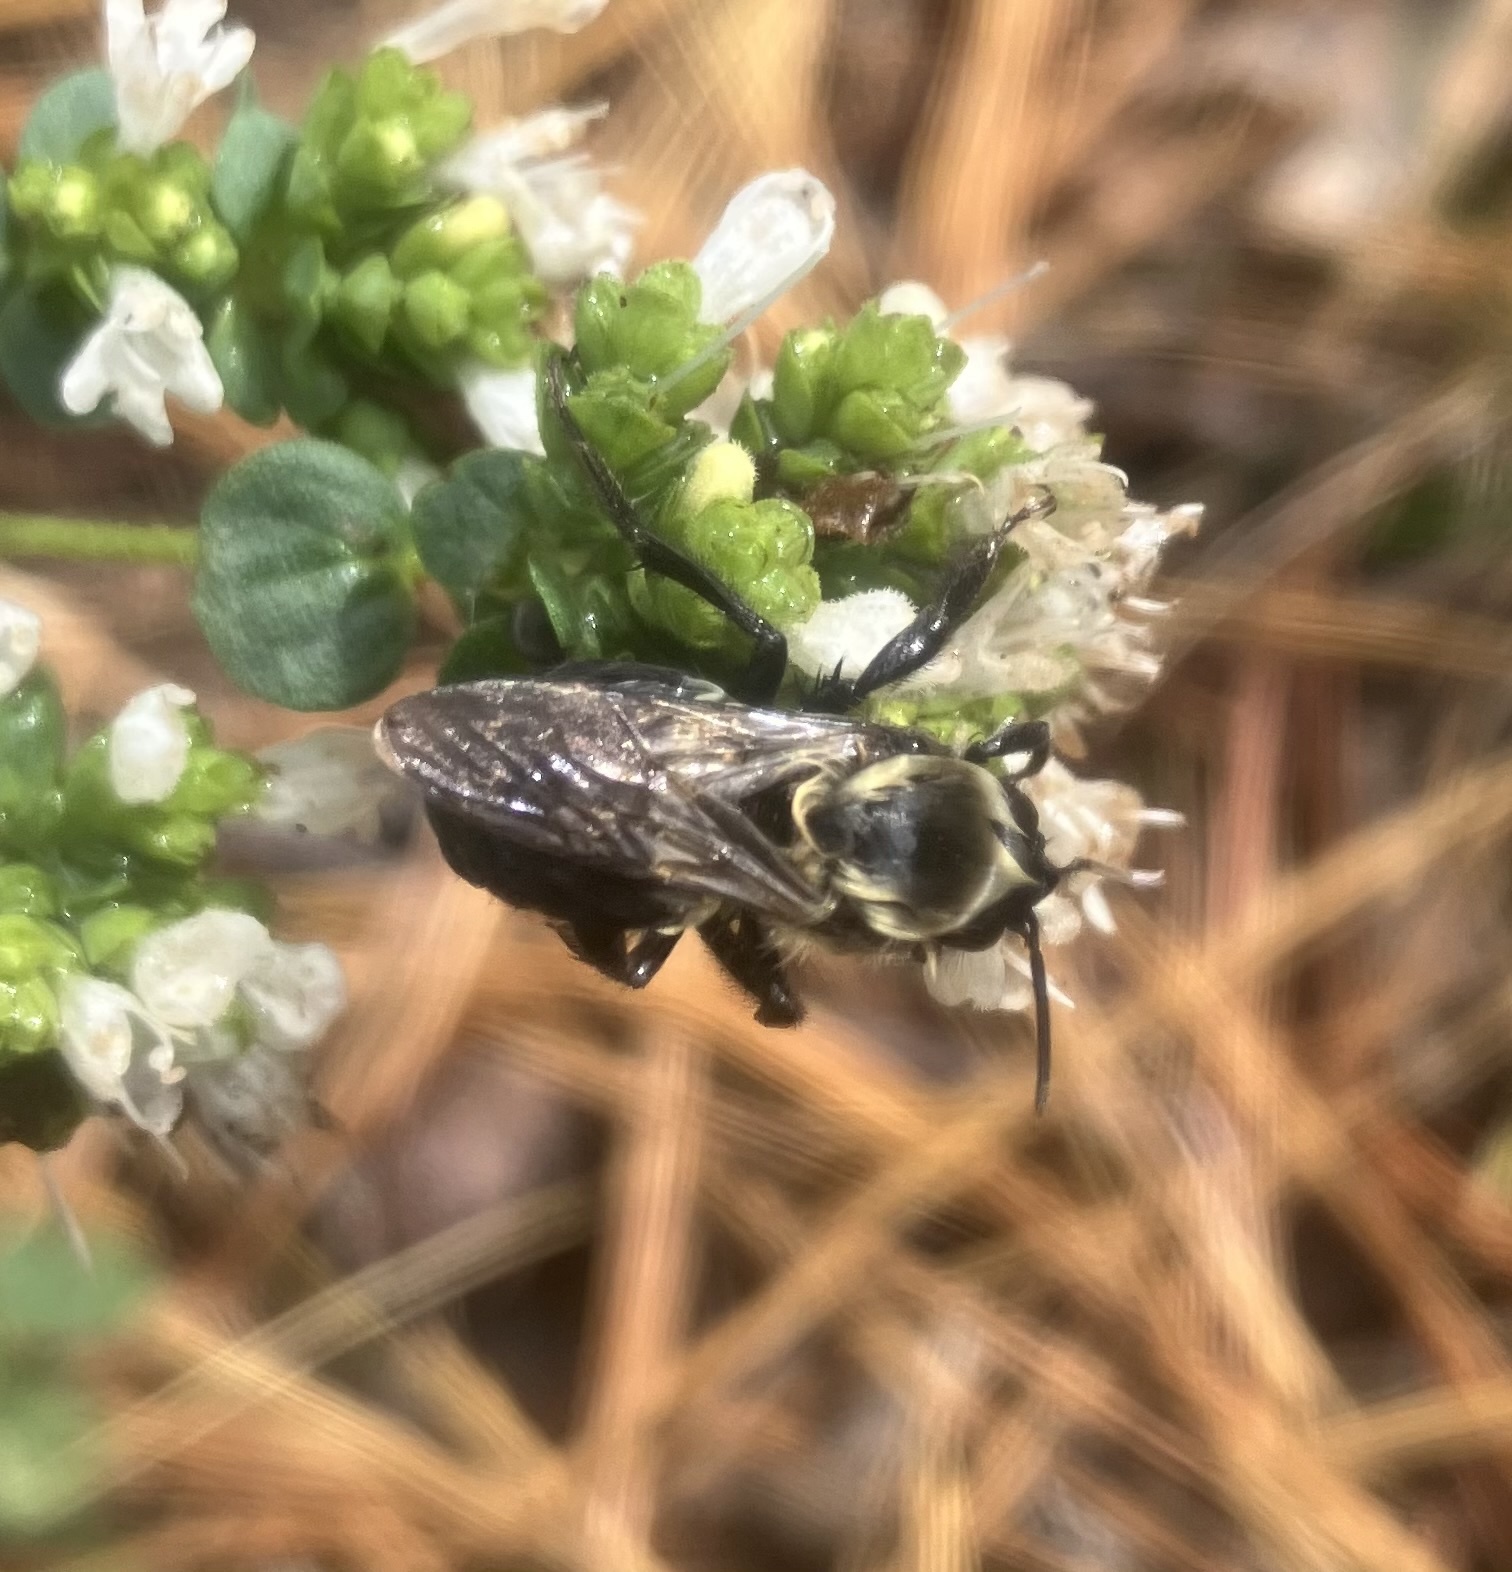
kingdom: Animalia
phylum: Arthropoda
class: Insecta
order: Hymenoptera
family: Apidae
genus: Bombus
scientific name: Bombus impatiens
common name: Common eastern bumble bee
